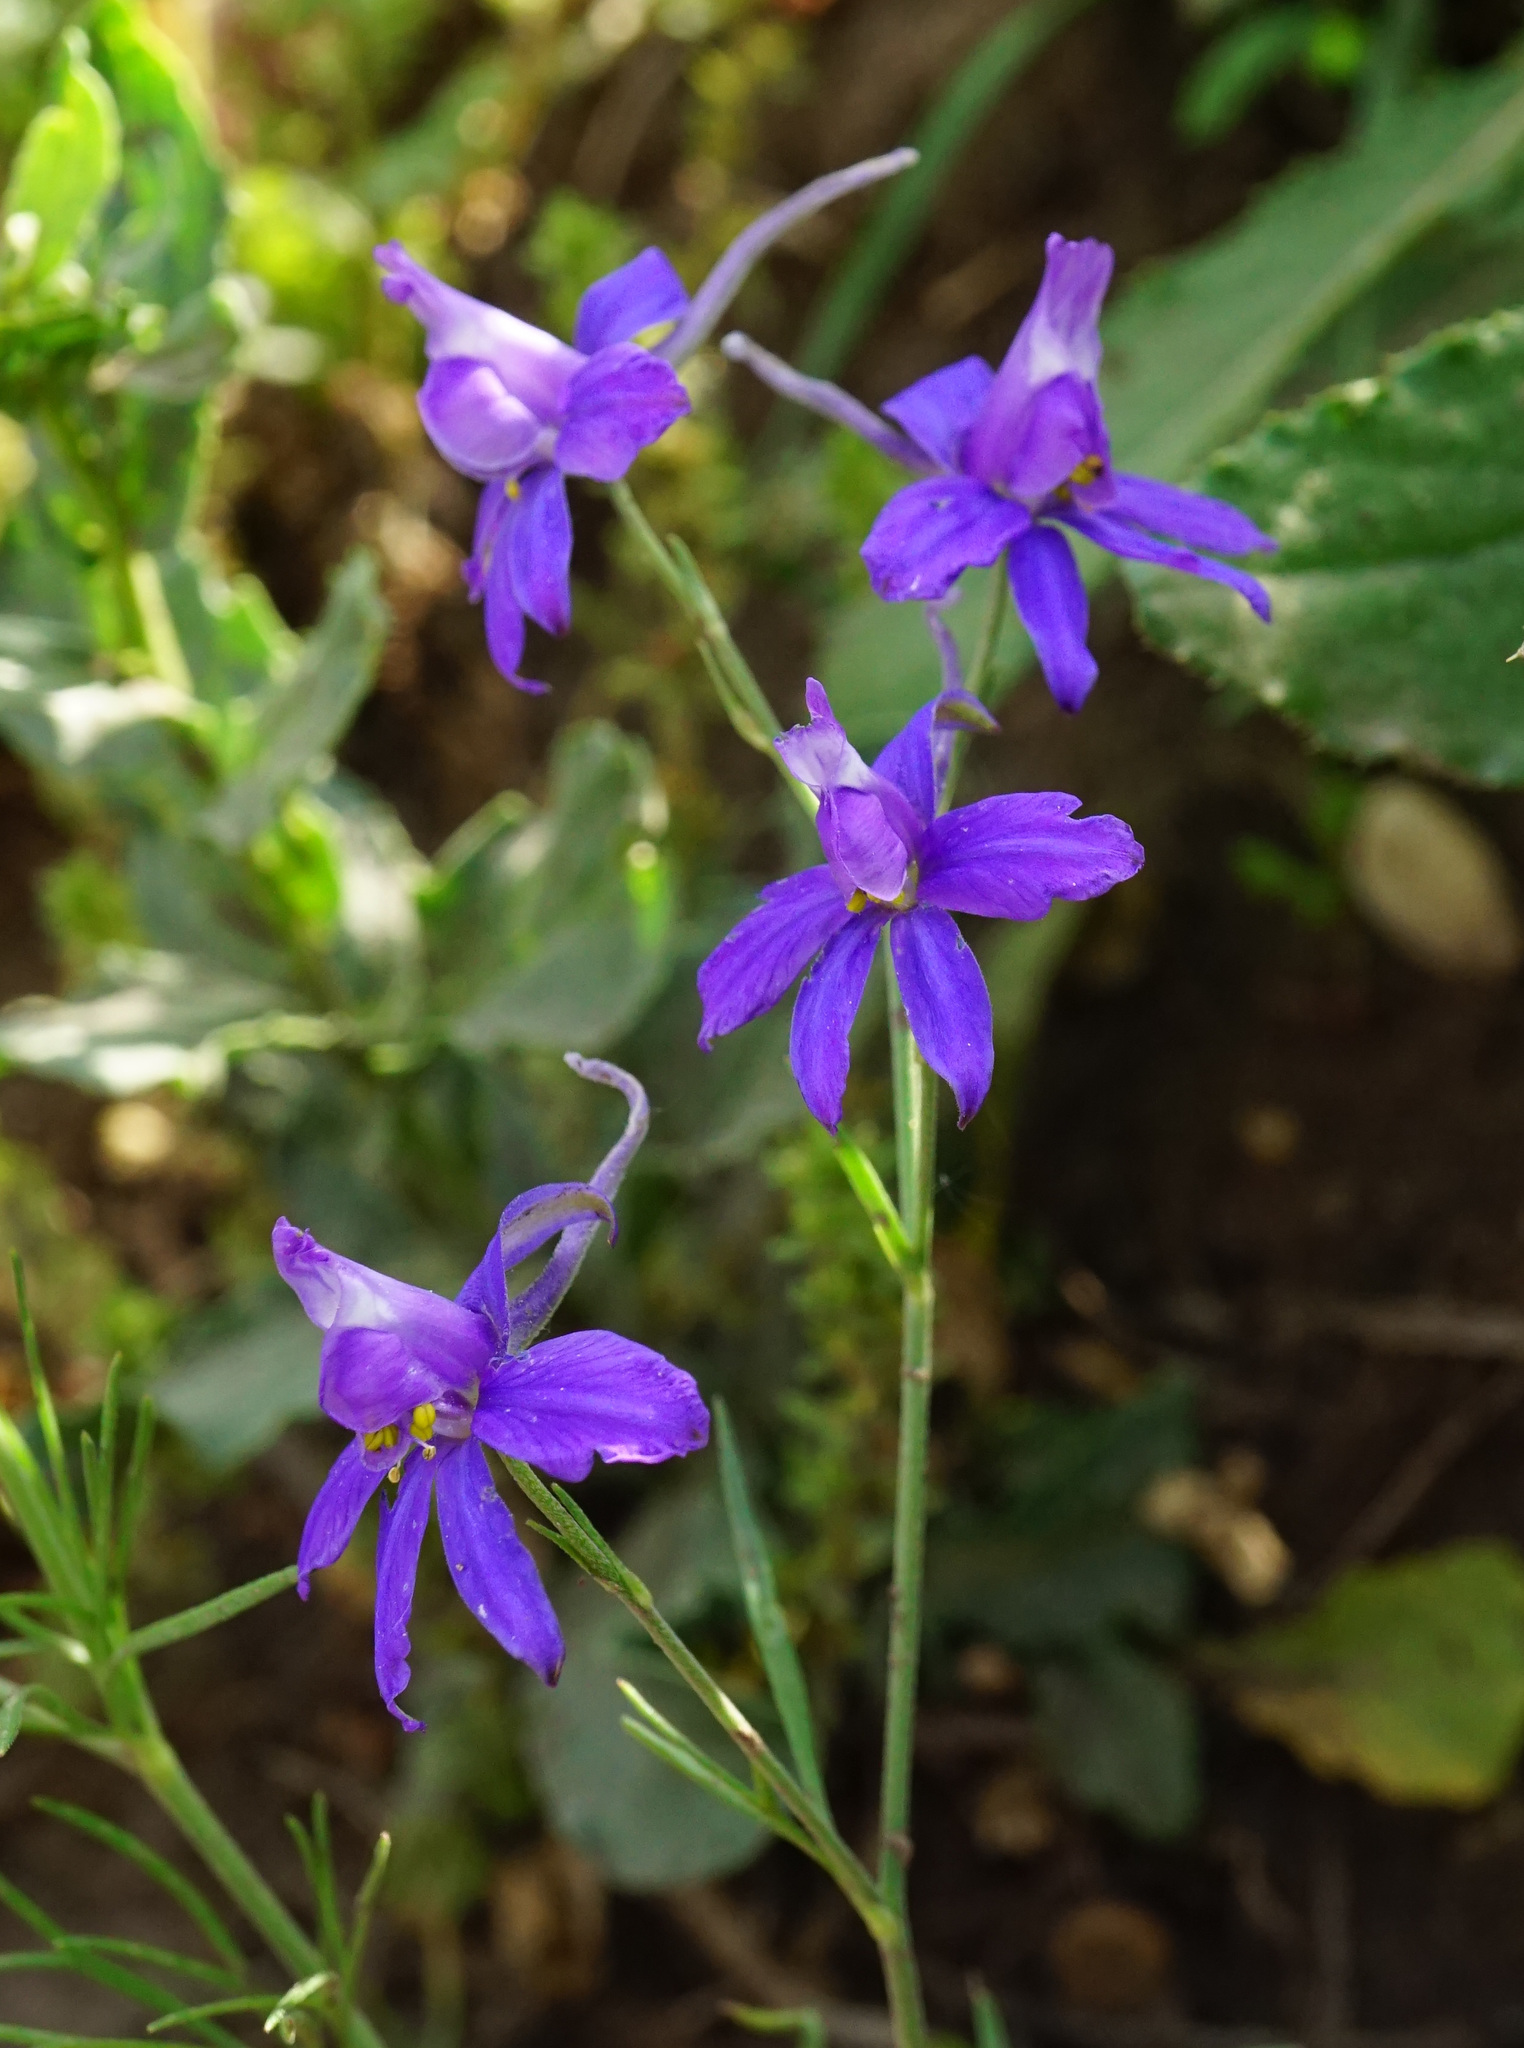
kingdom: Plantae
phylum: Tracheophyta
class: Magnoliopsida
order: Ranunculales
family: Ranunculaceae
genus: Delphinium
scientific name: Delphinium consolida
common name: Branching larkspur
